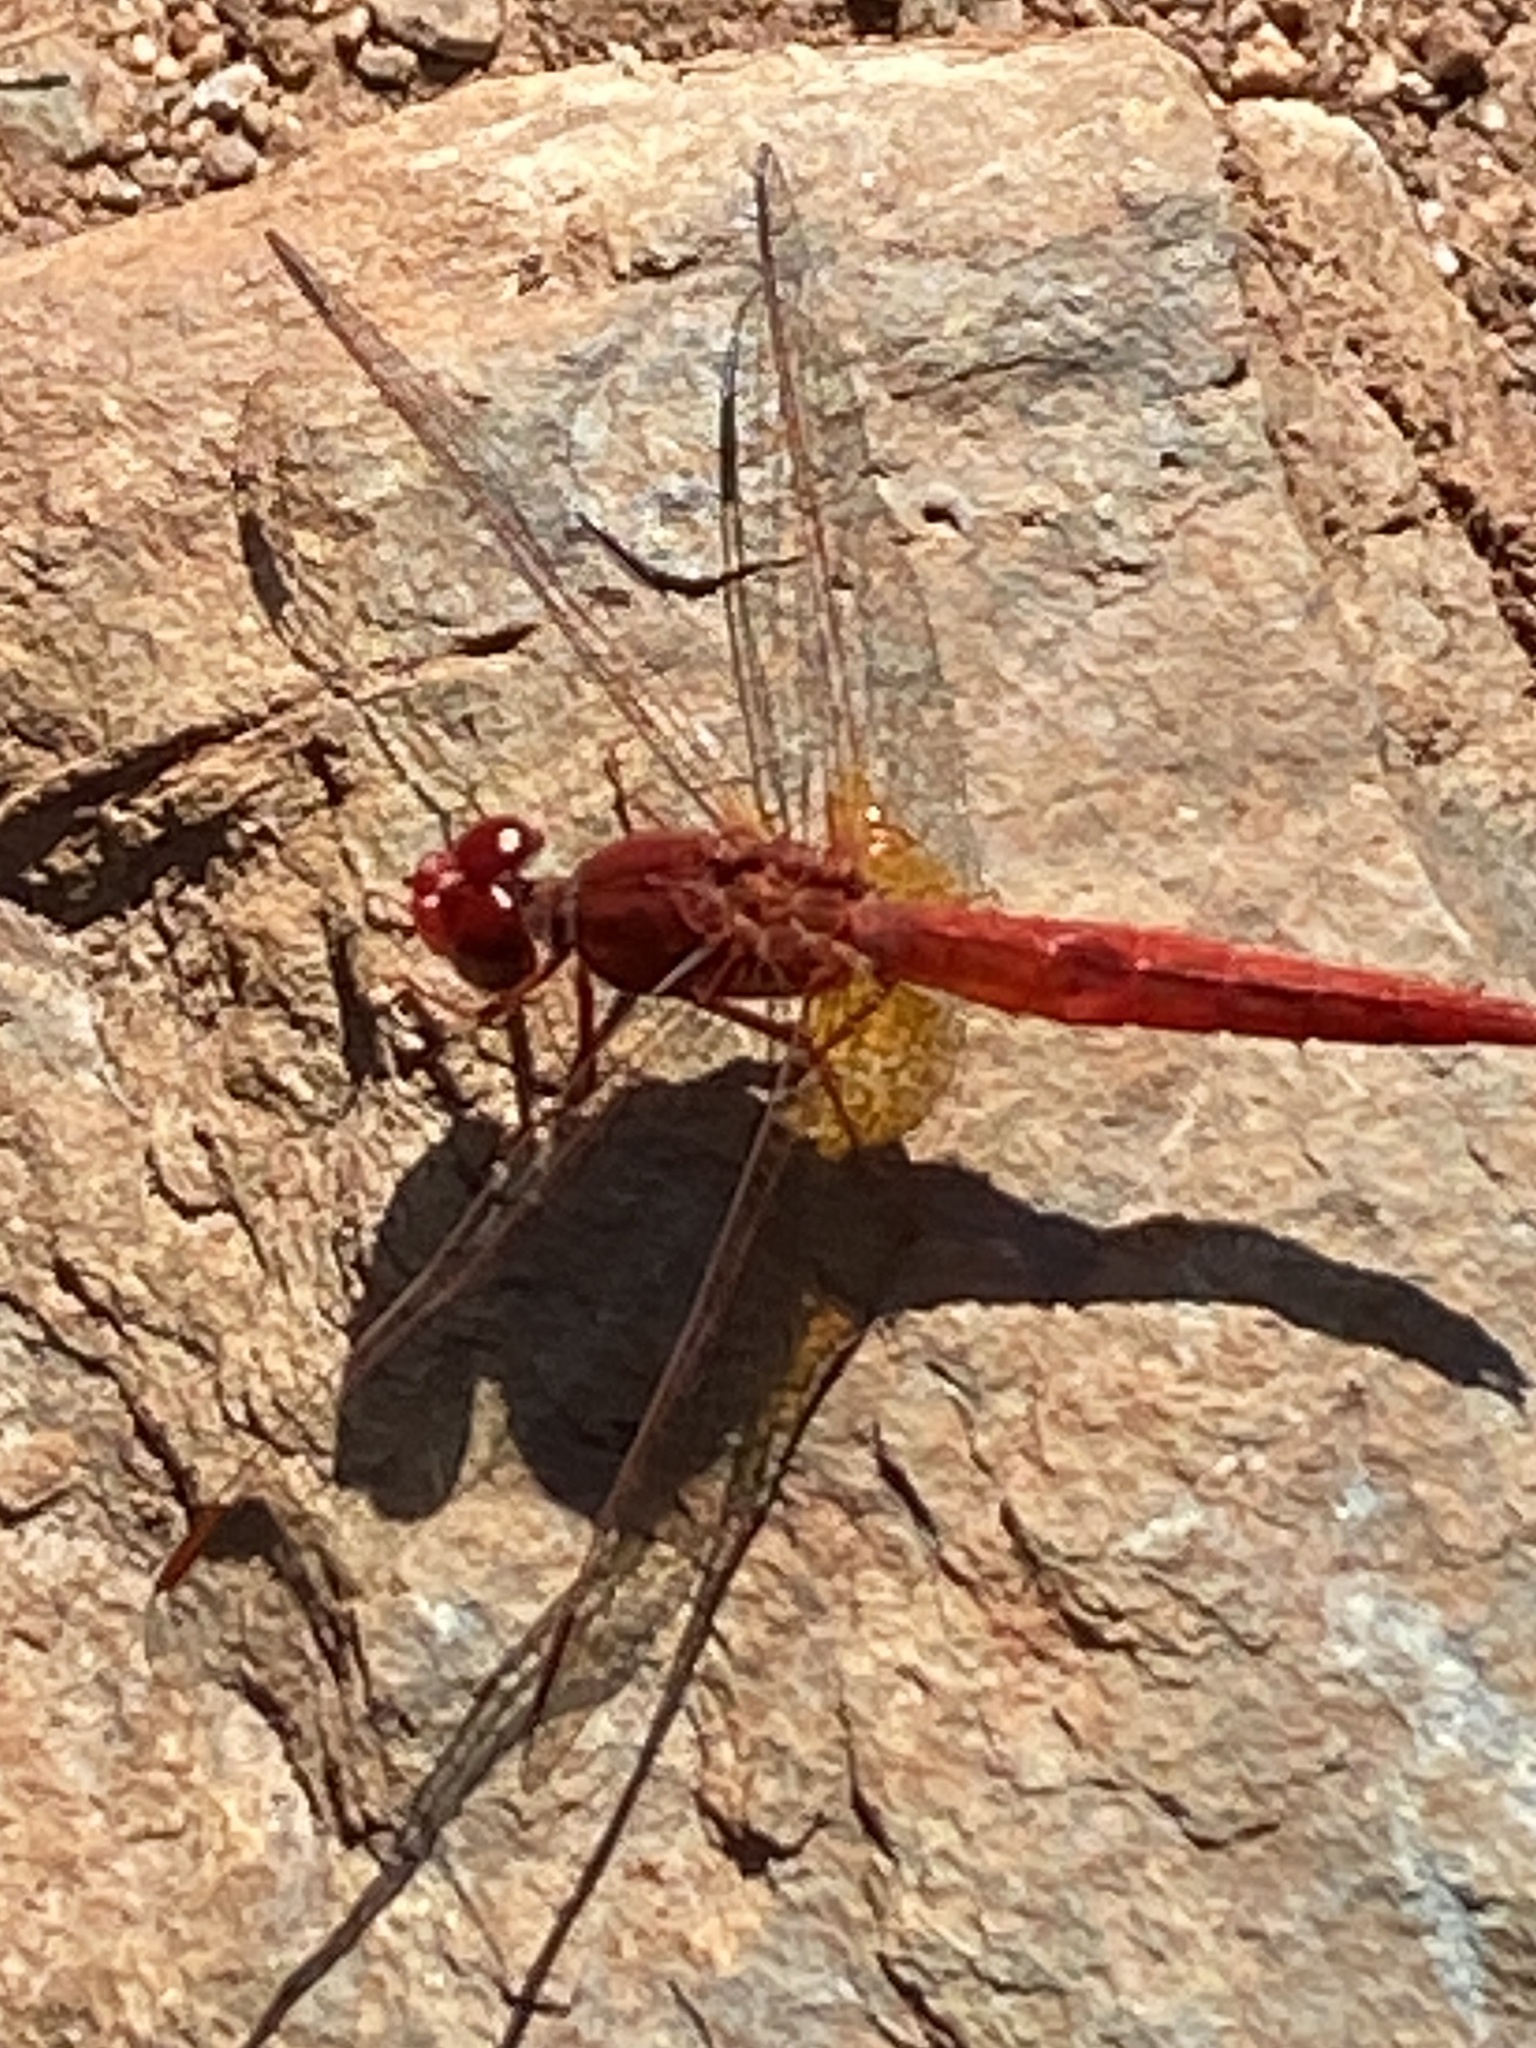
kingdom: Animalia
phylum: Arthropoda
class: Insecta
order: Odonata
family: Libellulidae
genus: Crocothemis
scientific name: Crocothemis sanguinolenta
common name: Little scarlet
